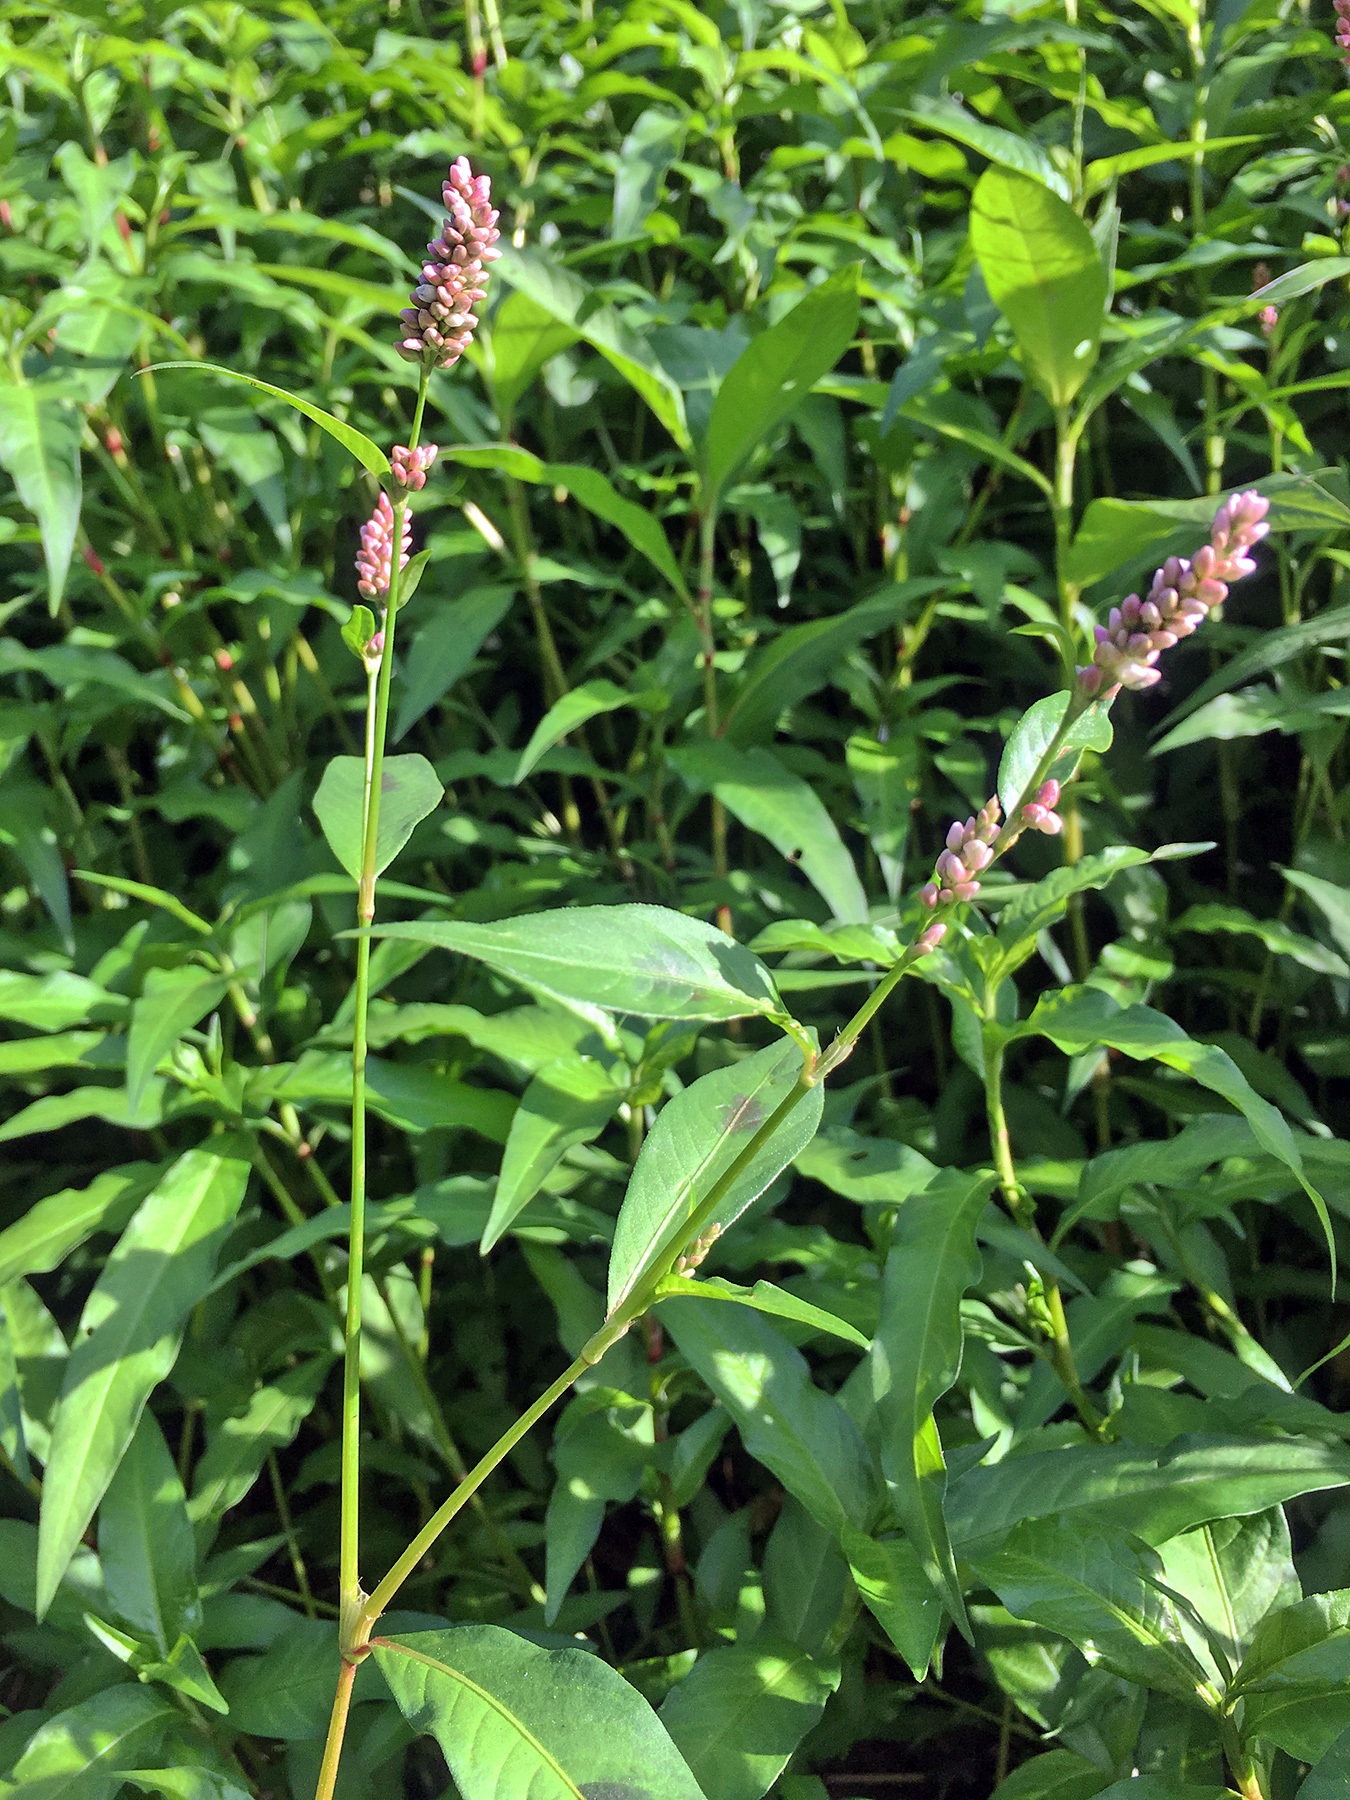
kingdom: Plantae
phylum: Tracheophyta
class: Magnoliopsida
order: Caryophyllales
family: Polygonaceae
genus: Persicaria
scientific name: Persicaria maculosa
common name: Redshank
